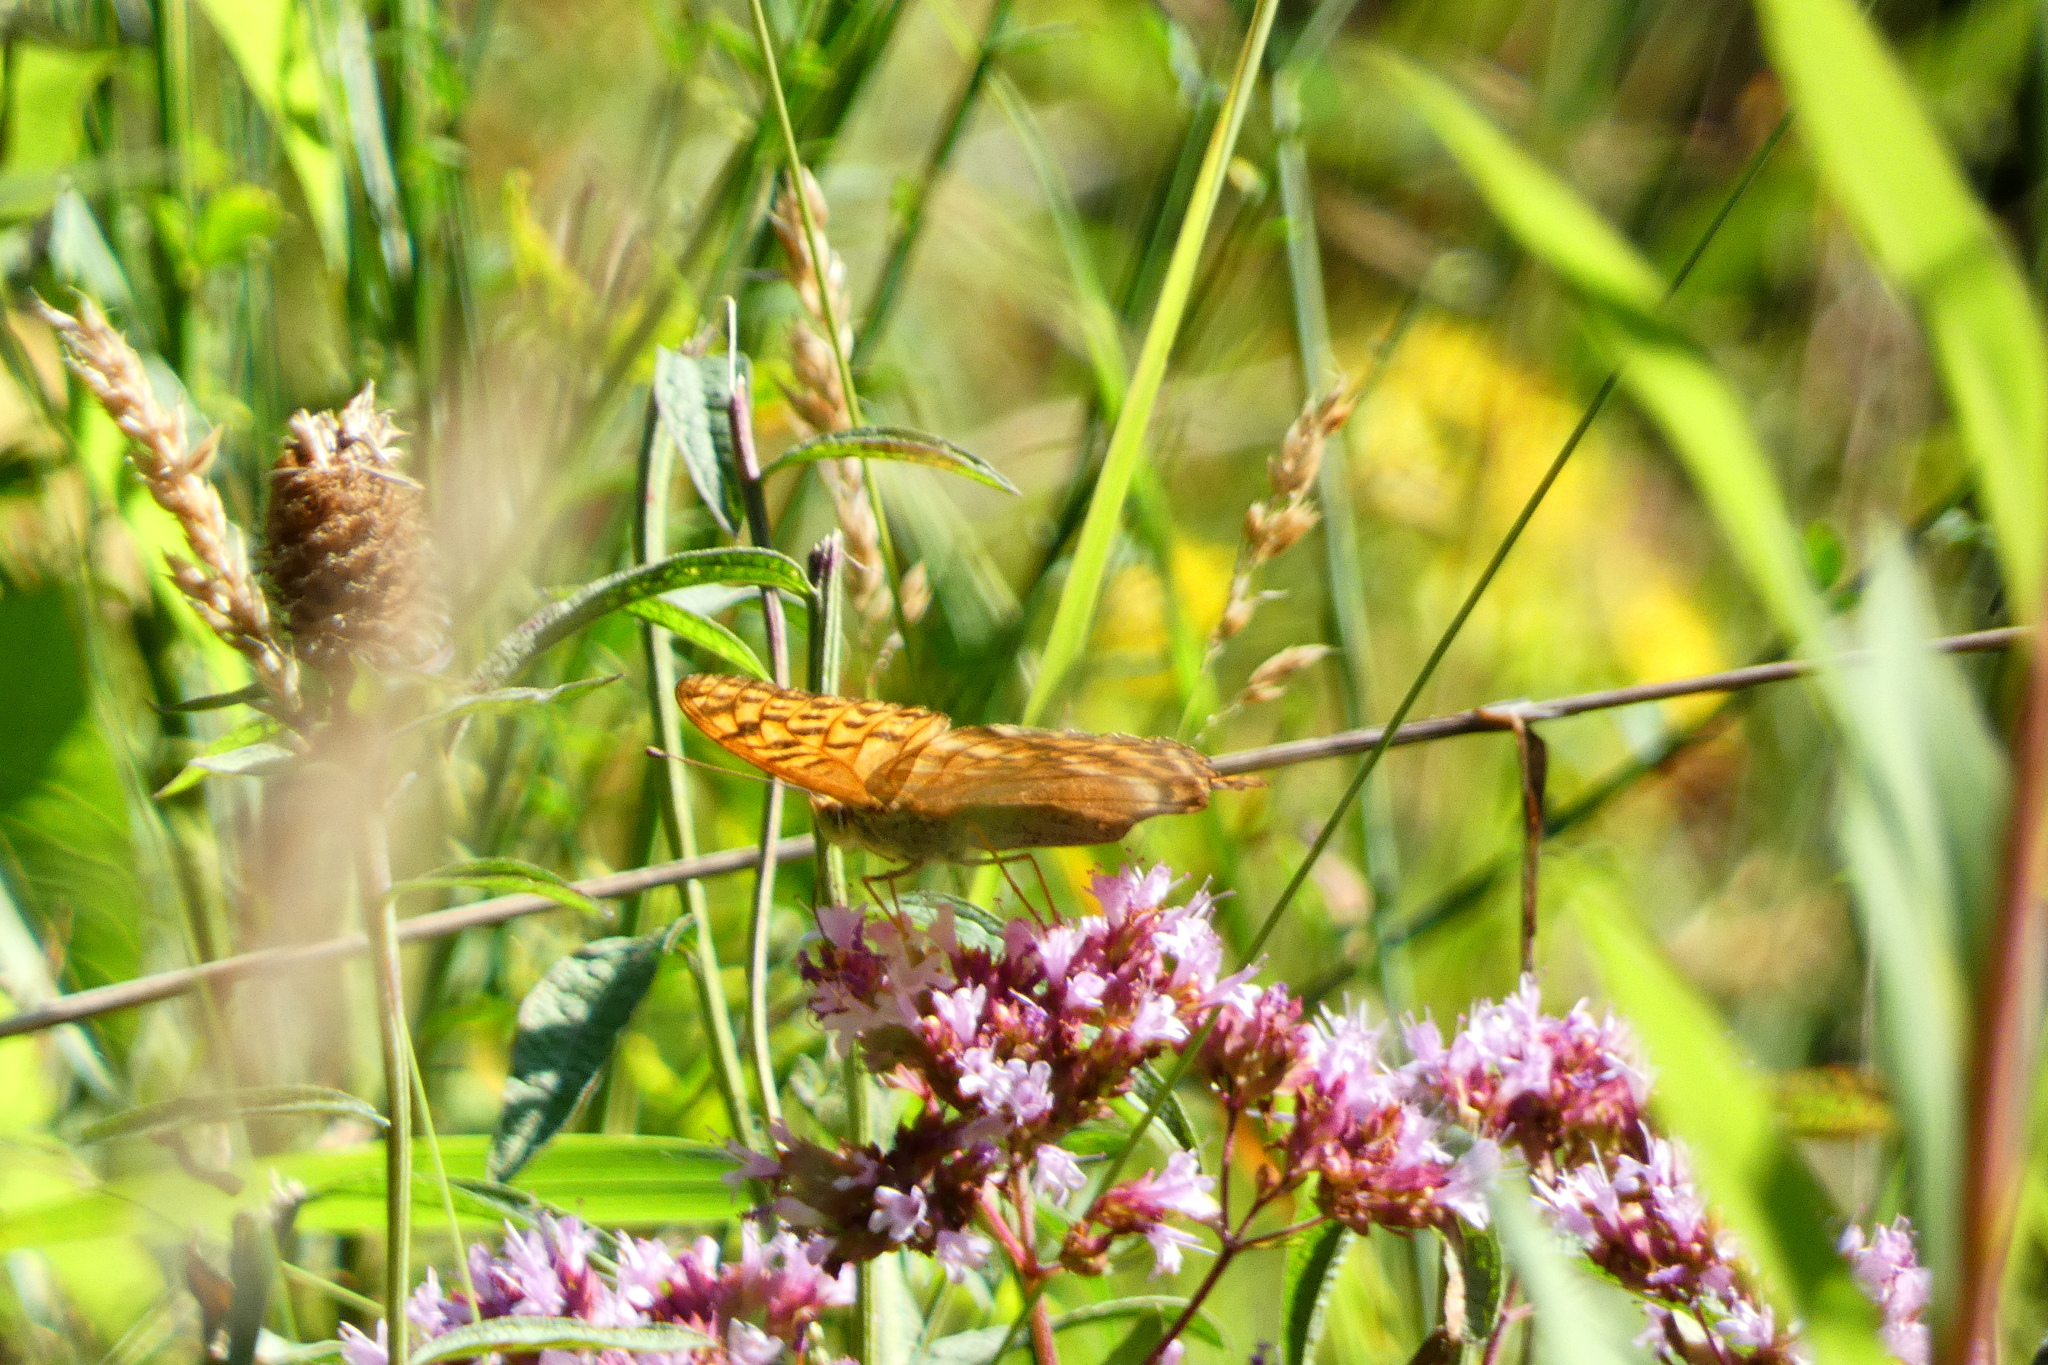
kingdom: Animalia
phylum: Arthropoda
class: Insecta
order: Lepidoptera
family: Nymphalidae
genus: Argynnis
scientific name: Argynnis paphia
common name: Silver-washed fritillary
